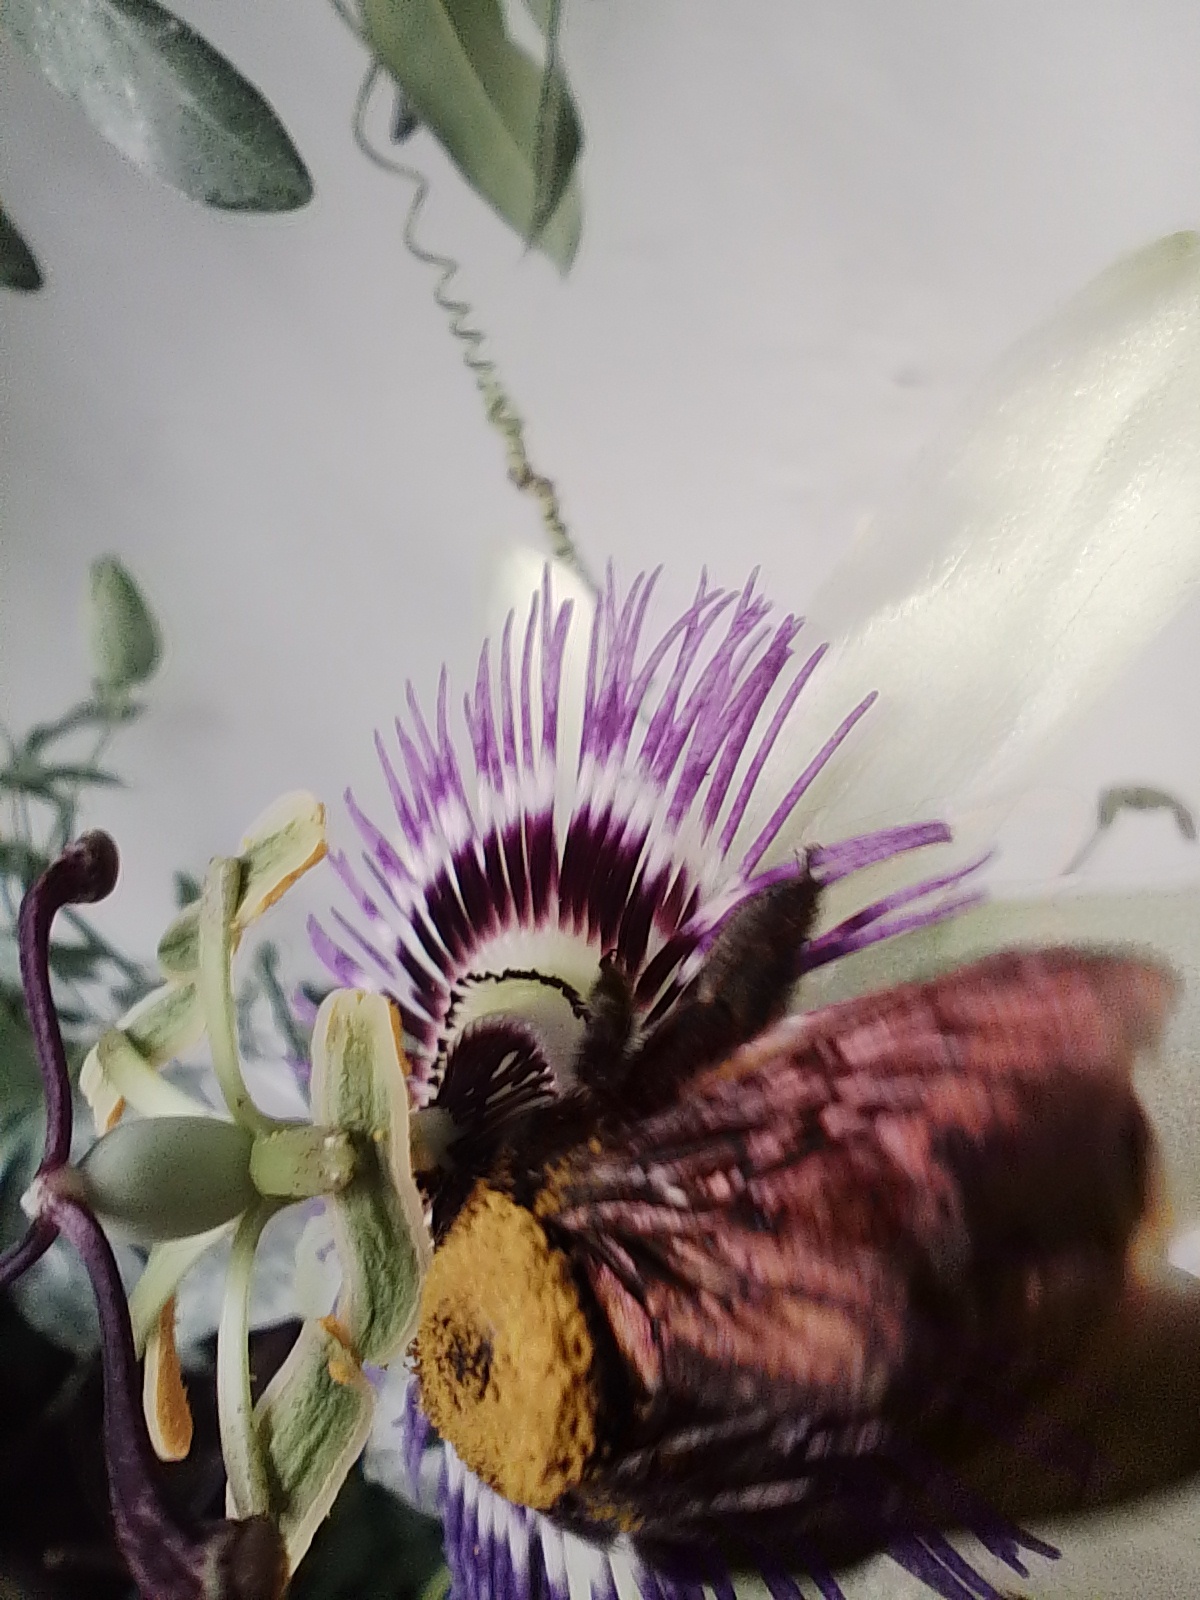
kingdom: Animalia
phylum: Arthropoda
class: Insecta
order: Hymenoptera
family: Apidae
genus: Xylocopa
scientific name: Xylocopa augusti
